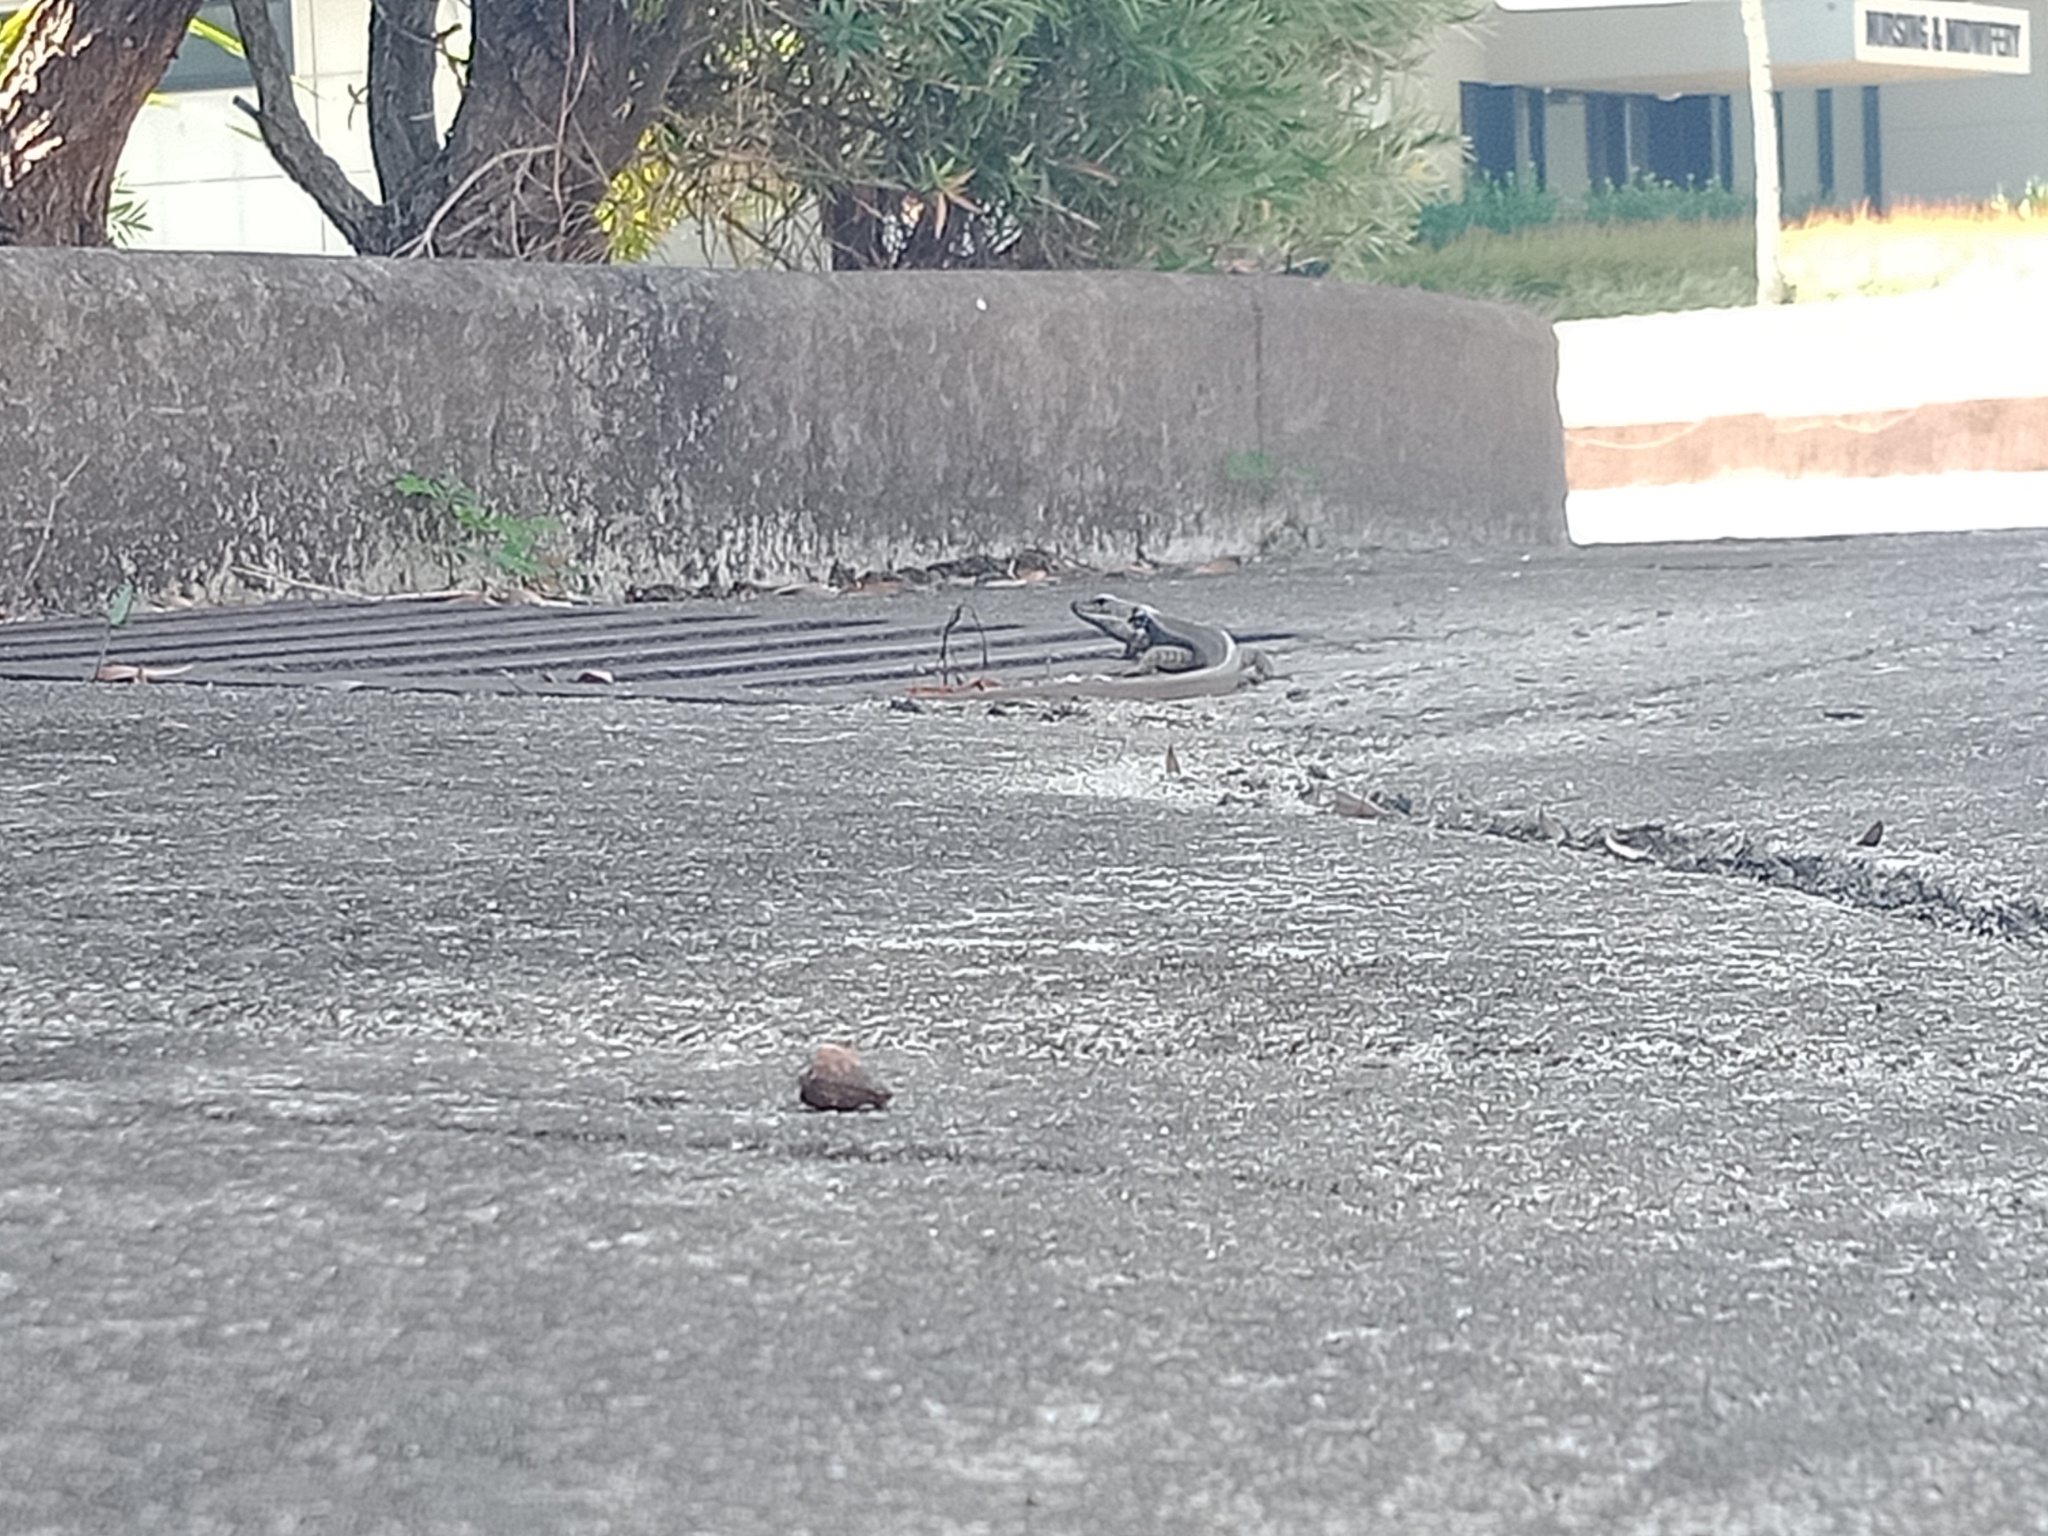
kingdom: Animalia
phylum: Chordata
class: Squamata
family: Scincidae
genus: Eulamprus
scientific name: Eulamprus quoyii
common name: Eastern water skink
